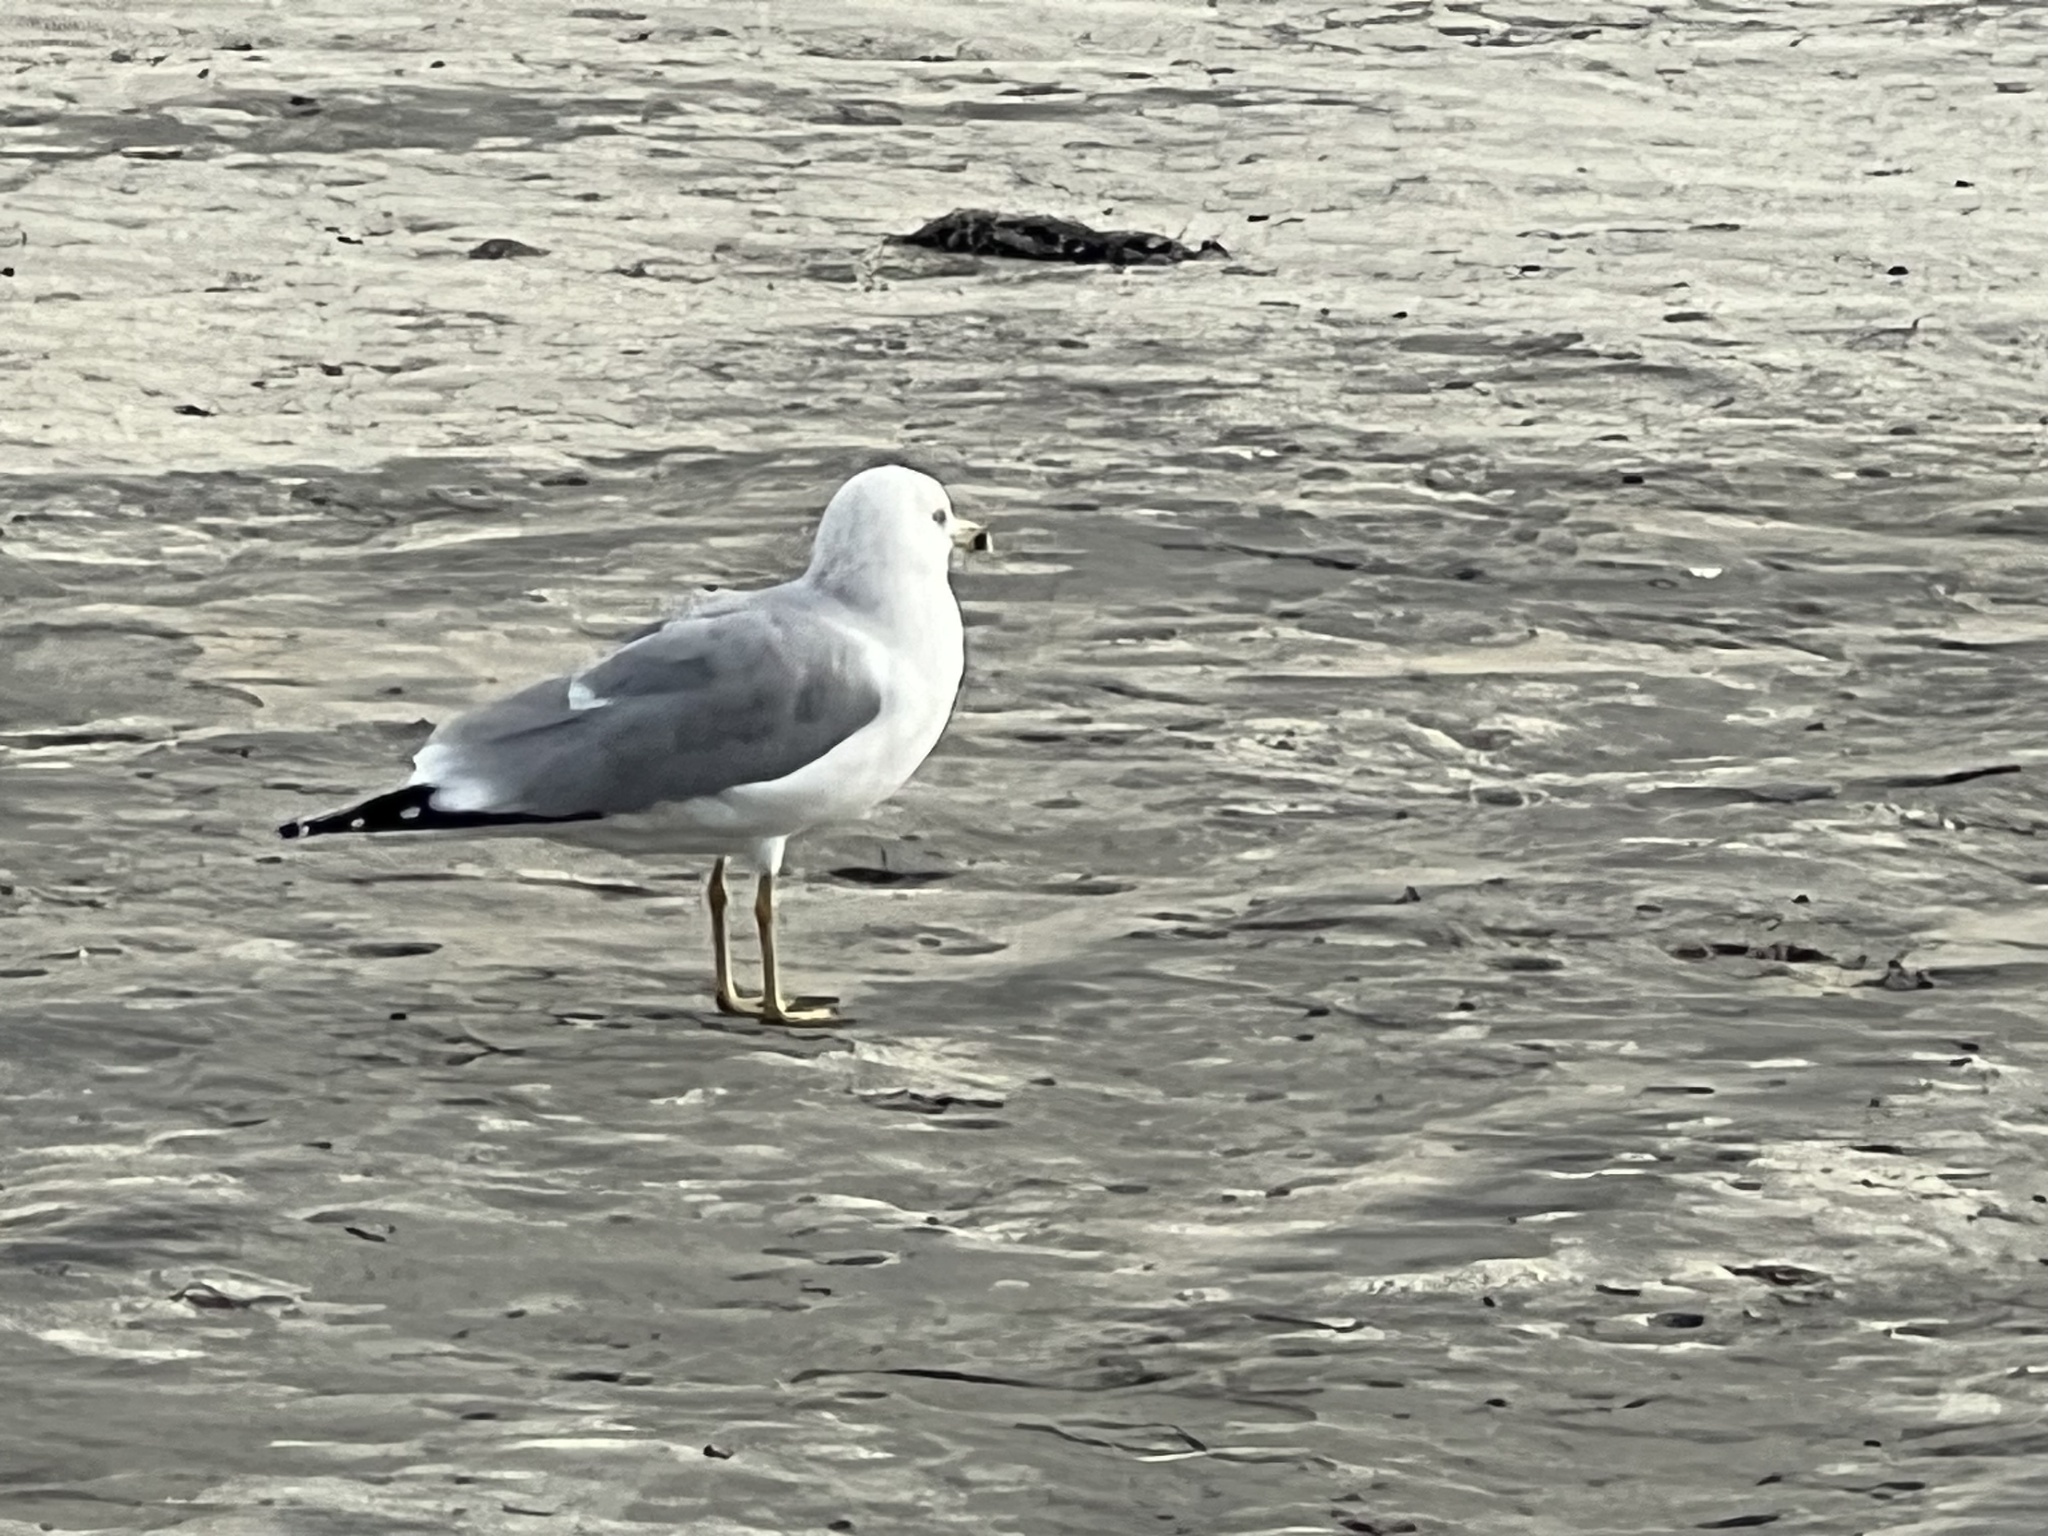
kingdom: Animalia
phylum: Chordata
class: Aves
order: Charadriiformes
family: Laridae
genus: Larus
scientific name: Larus delawarensis
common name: Ring-billed gull
